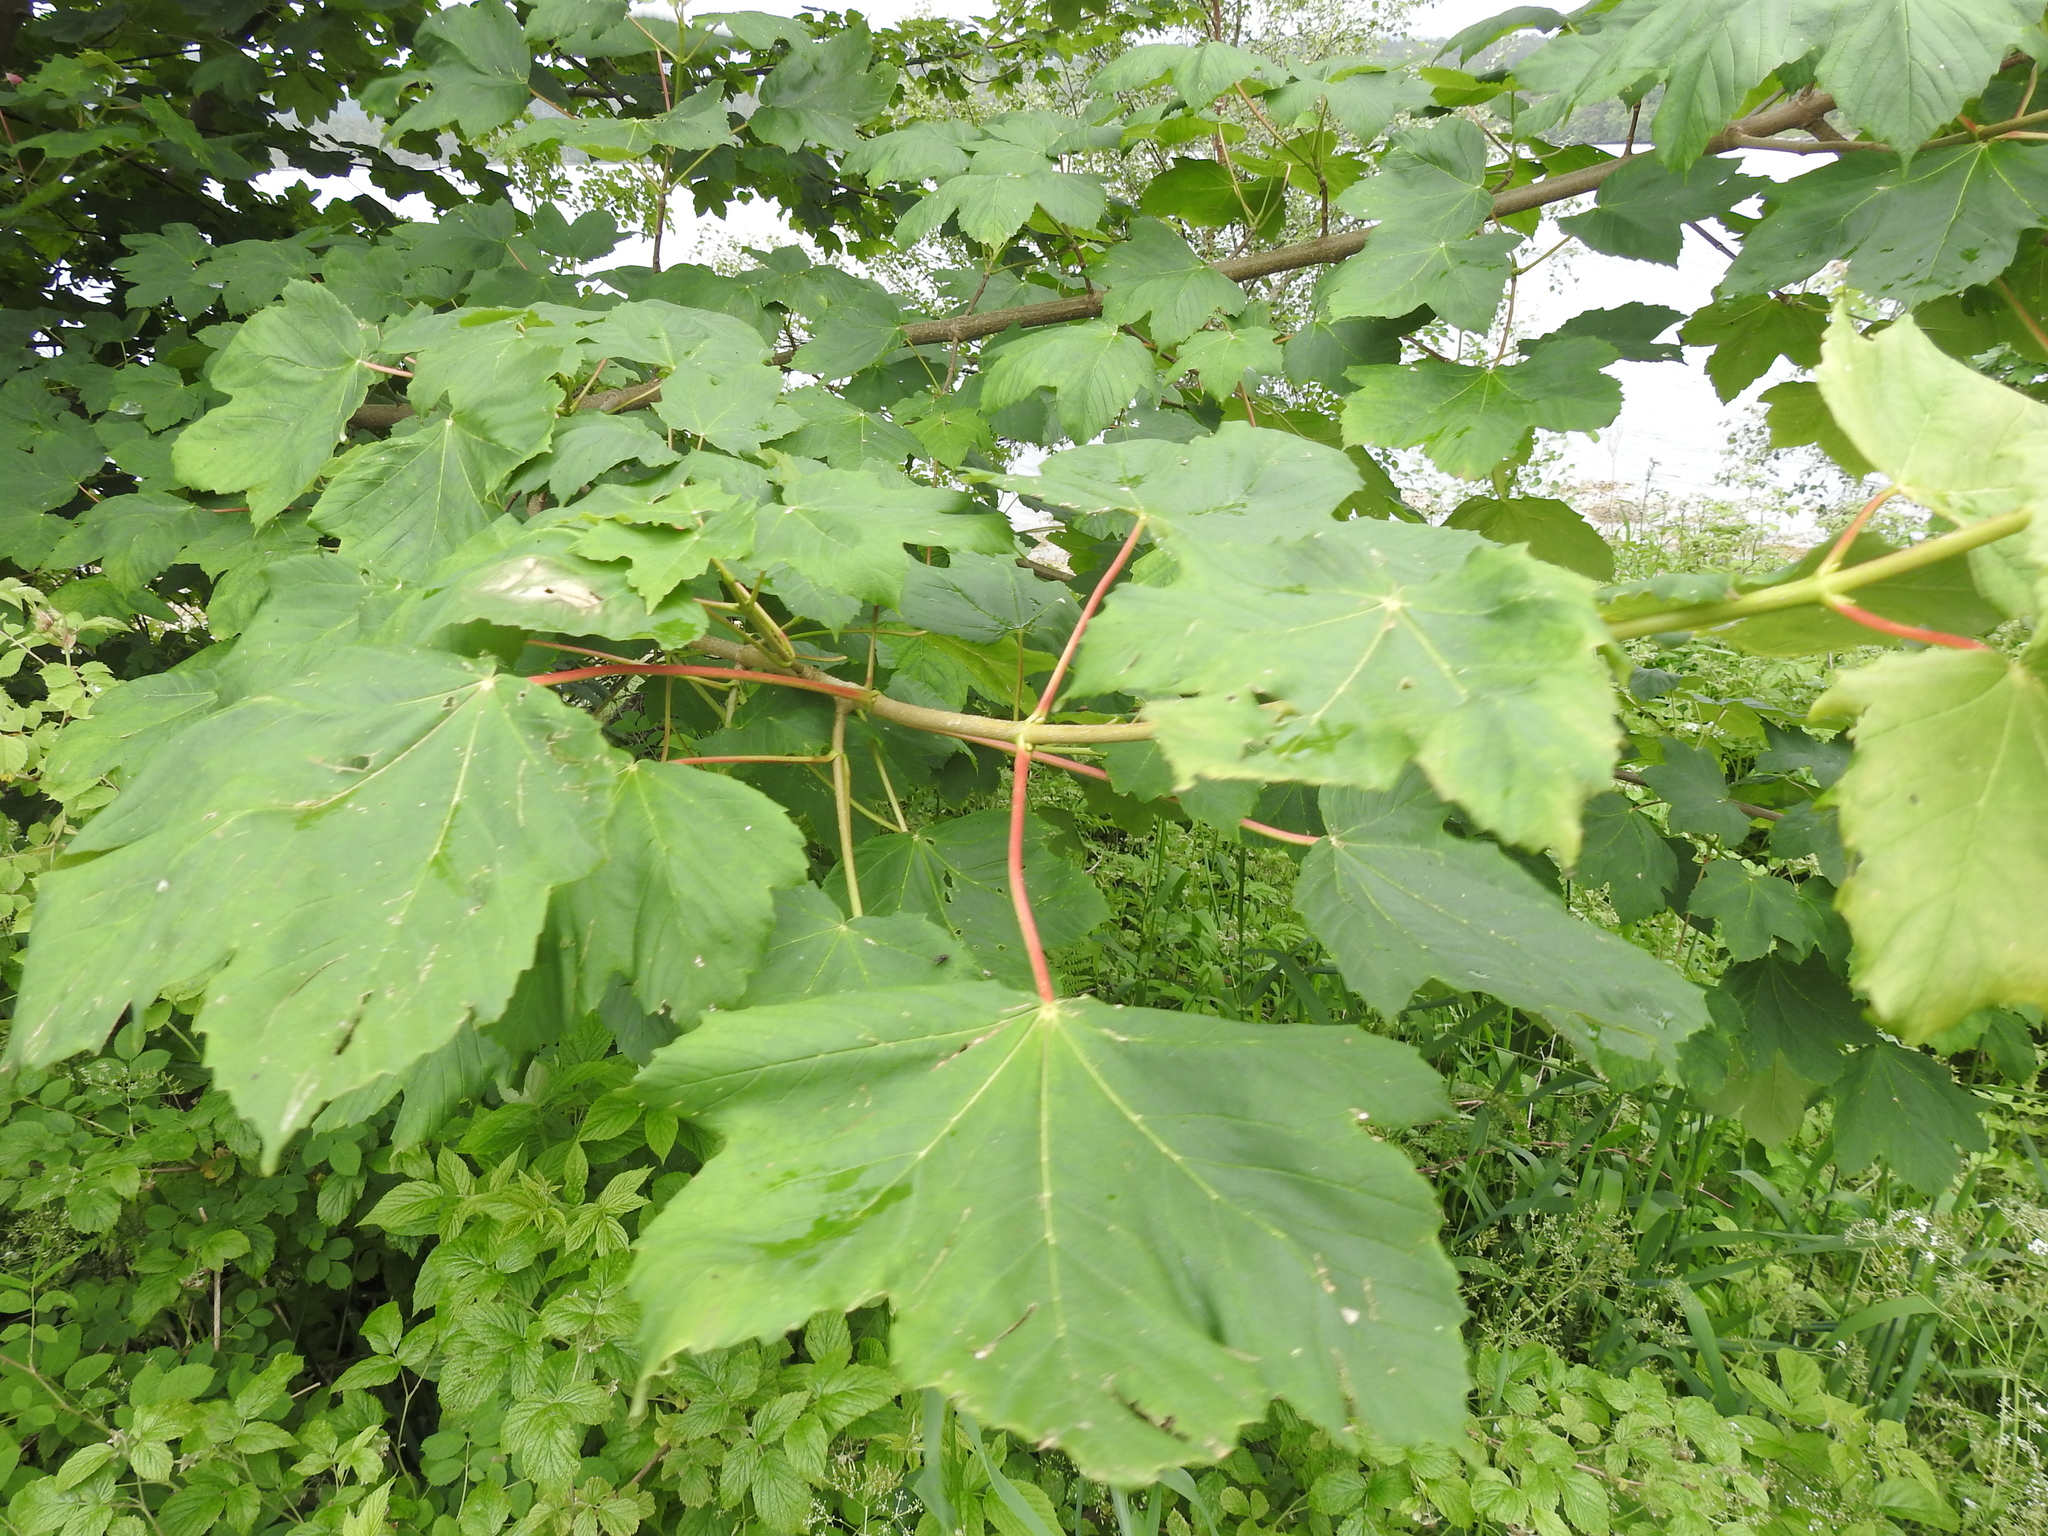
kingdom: Plantae
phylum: Tracheophyta
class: Magnoliopsida
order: Sapindales
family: Sapindaceae
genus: Acer
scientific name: Acer pseudoplatanus
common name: Sycamore
